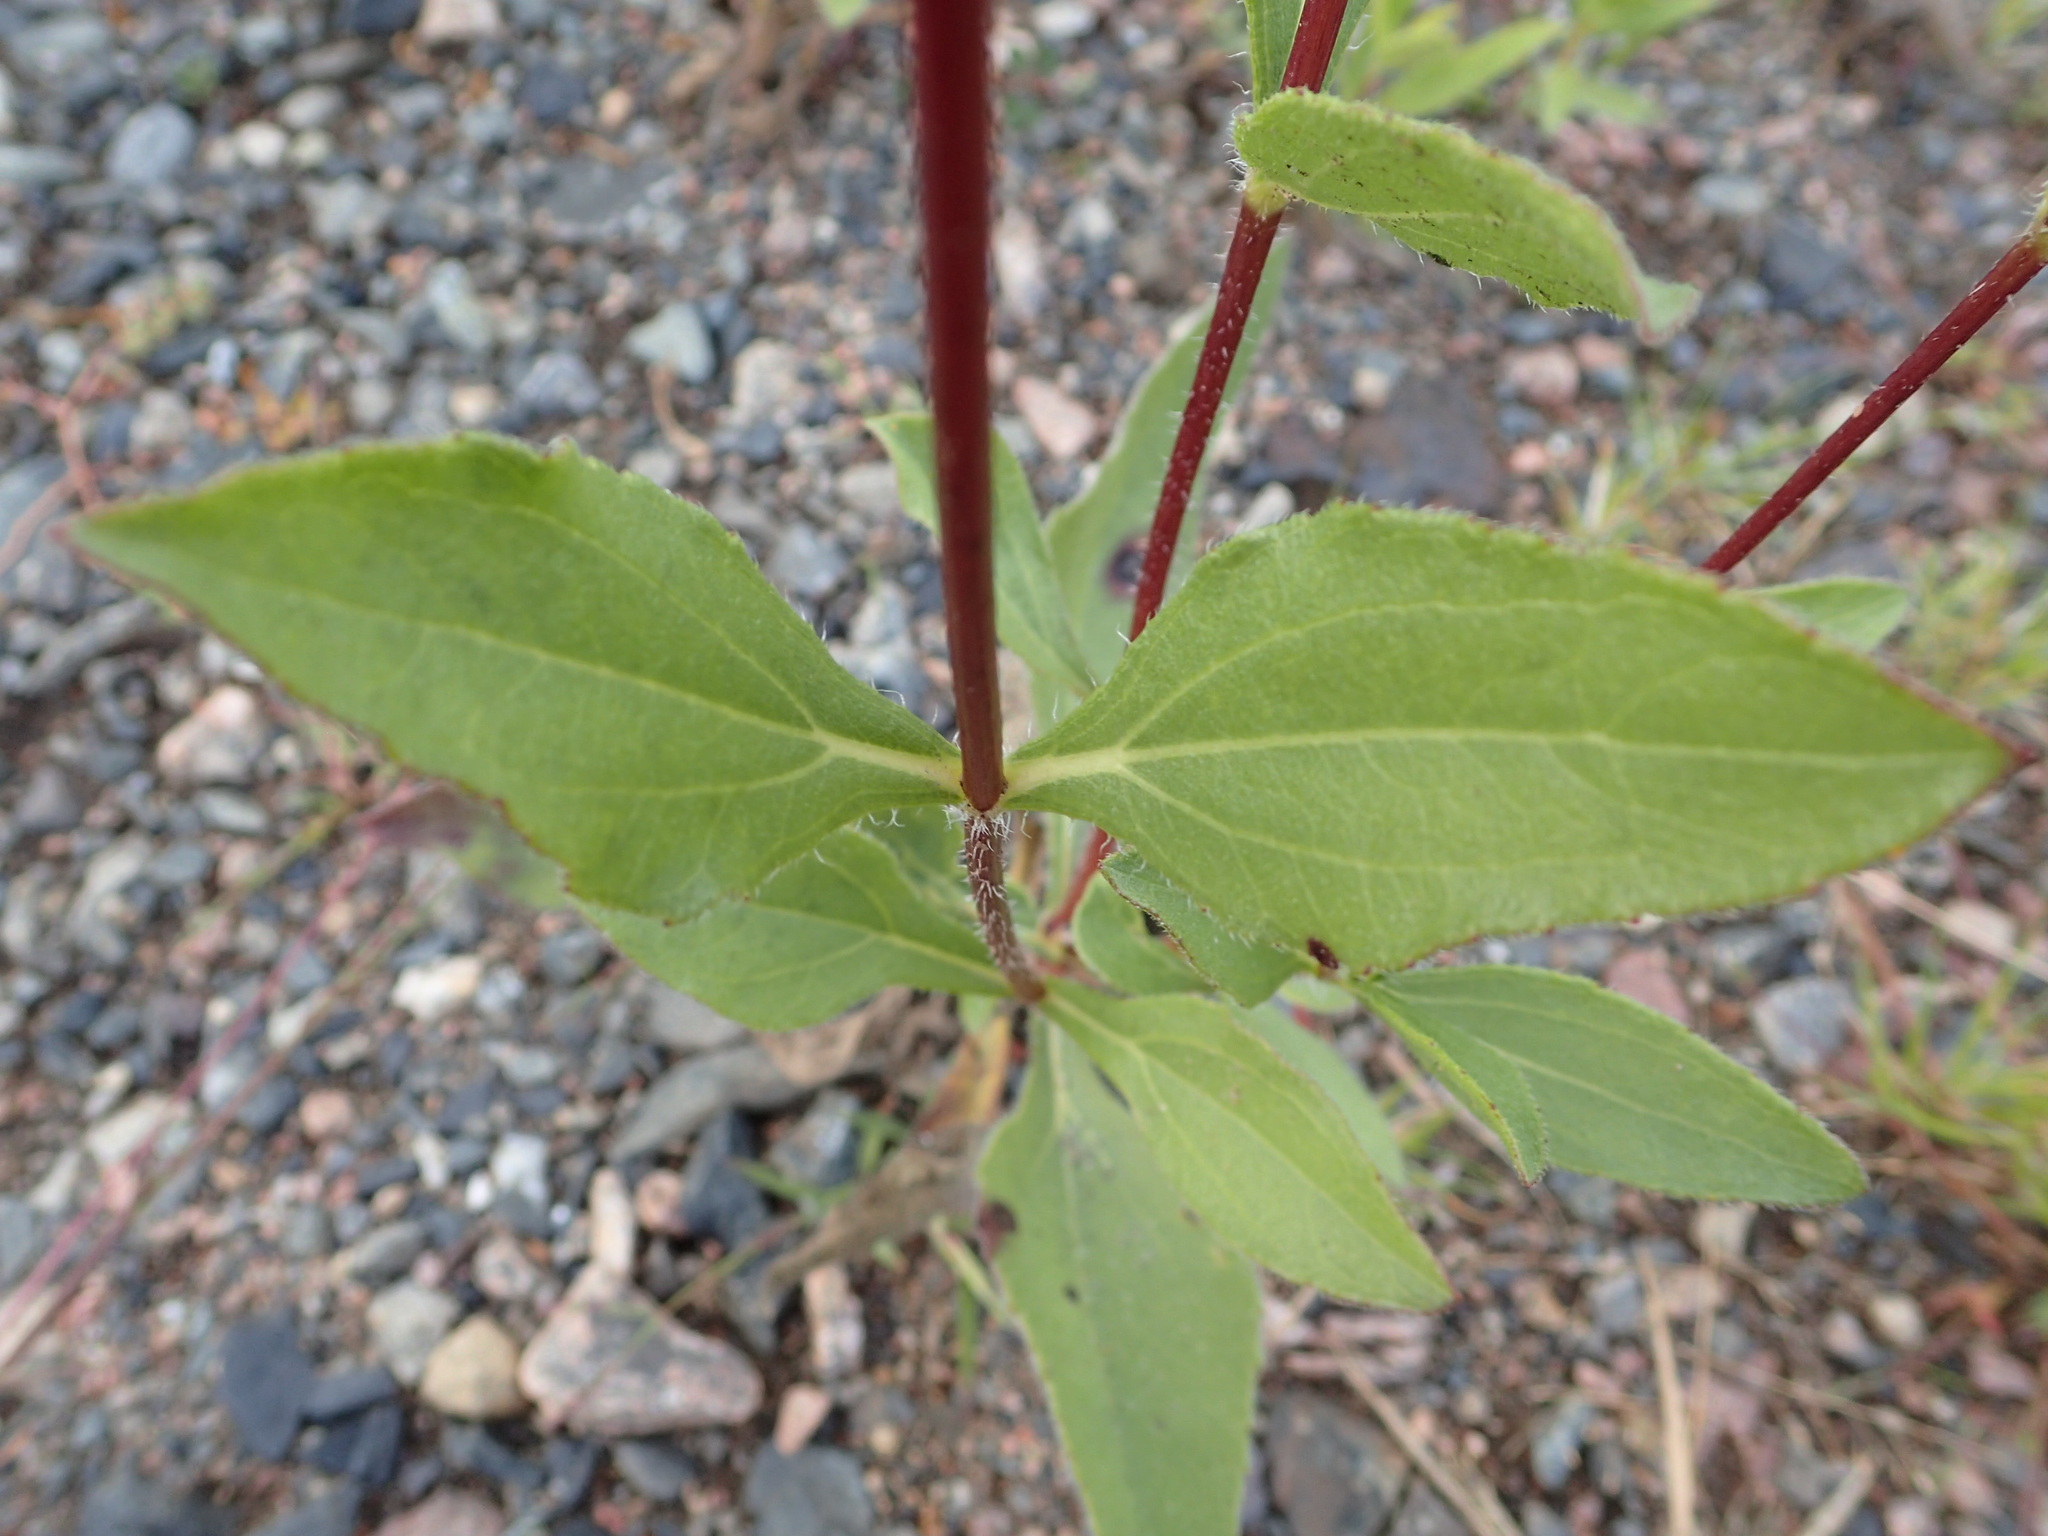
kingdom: Plantae
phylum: Tracheophyta
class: Magnoliopsida
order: Asterales
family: Asteraceae
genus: Helianthus
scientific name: Helianthus pauciflorus
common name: Stiff sunflower
